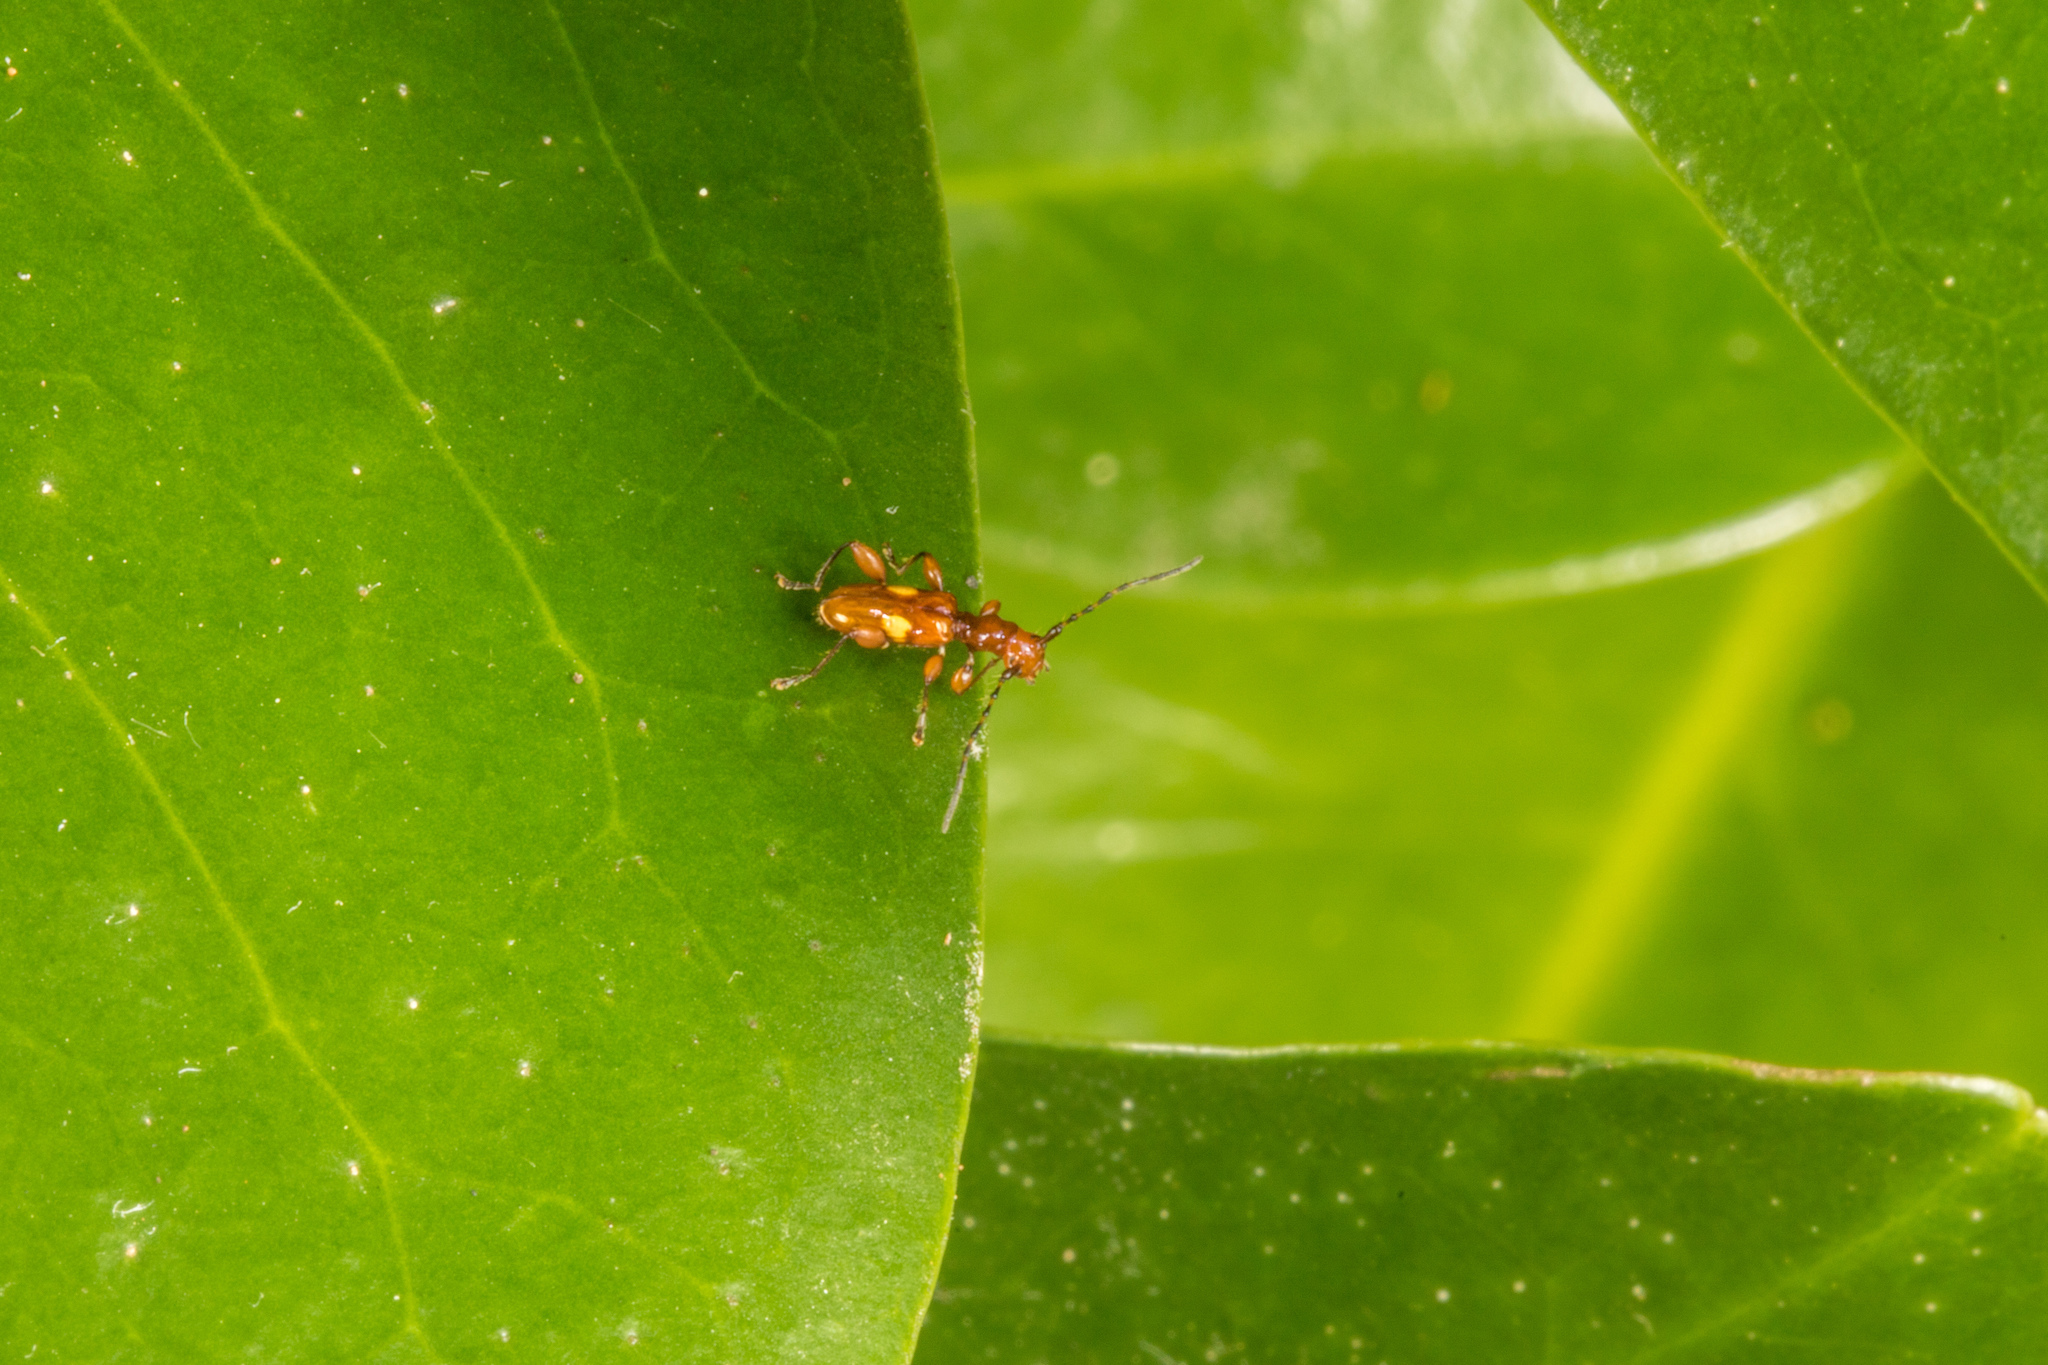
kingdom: Animalia
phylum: Arthropoda
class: Insecta
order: Coleoptera
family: Cerambycidae
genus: Zorion
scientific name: Zorion batesi
